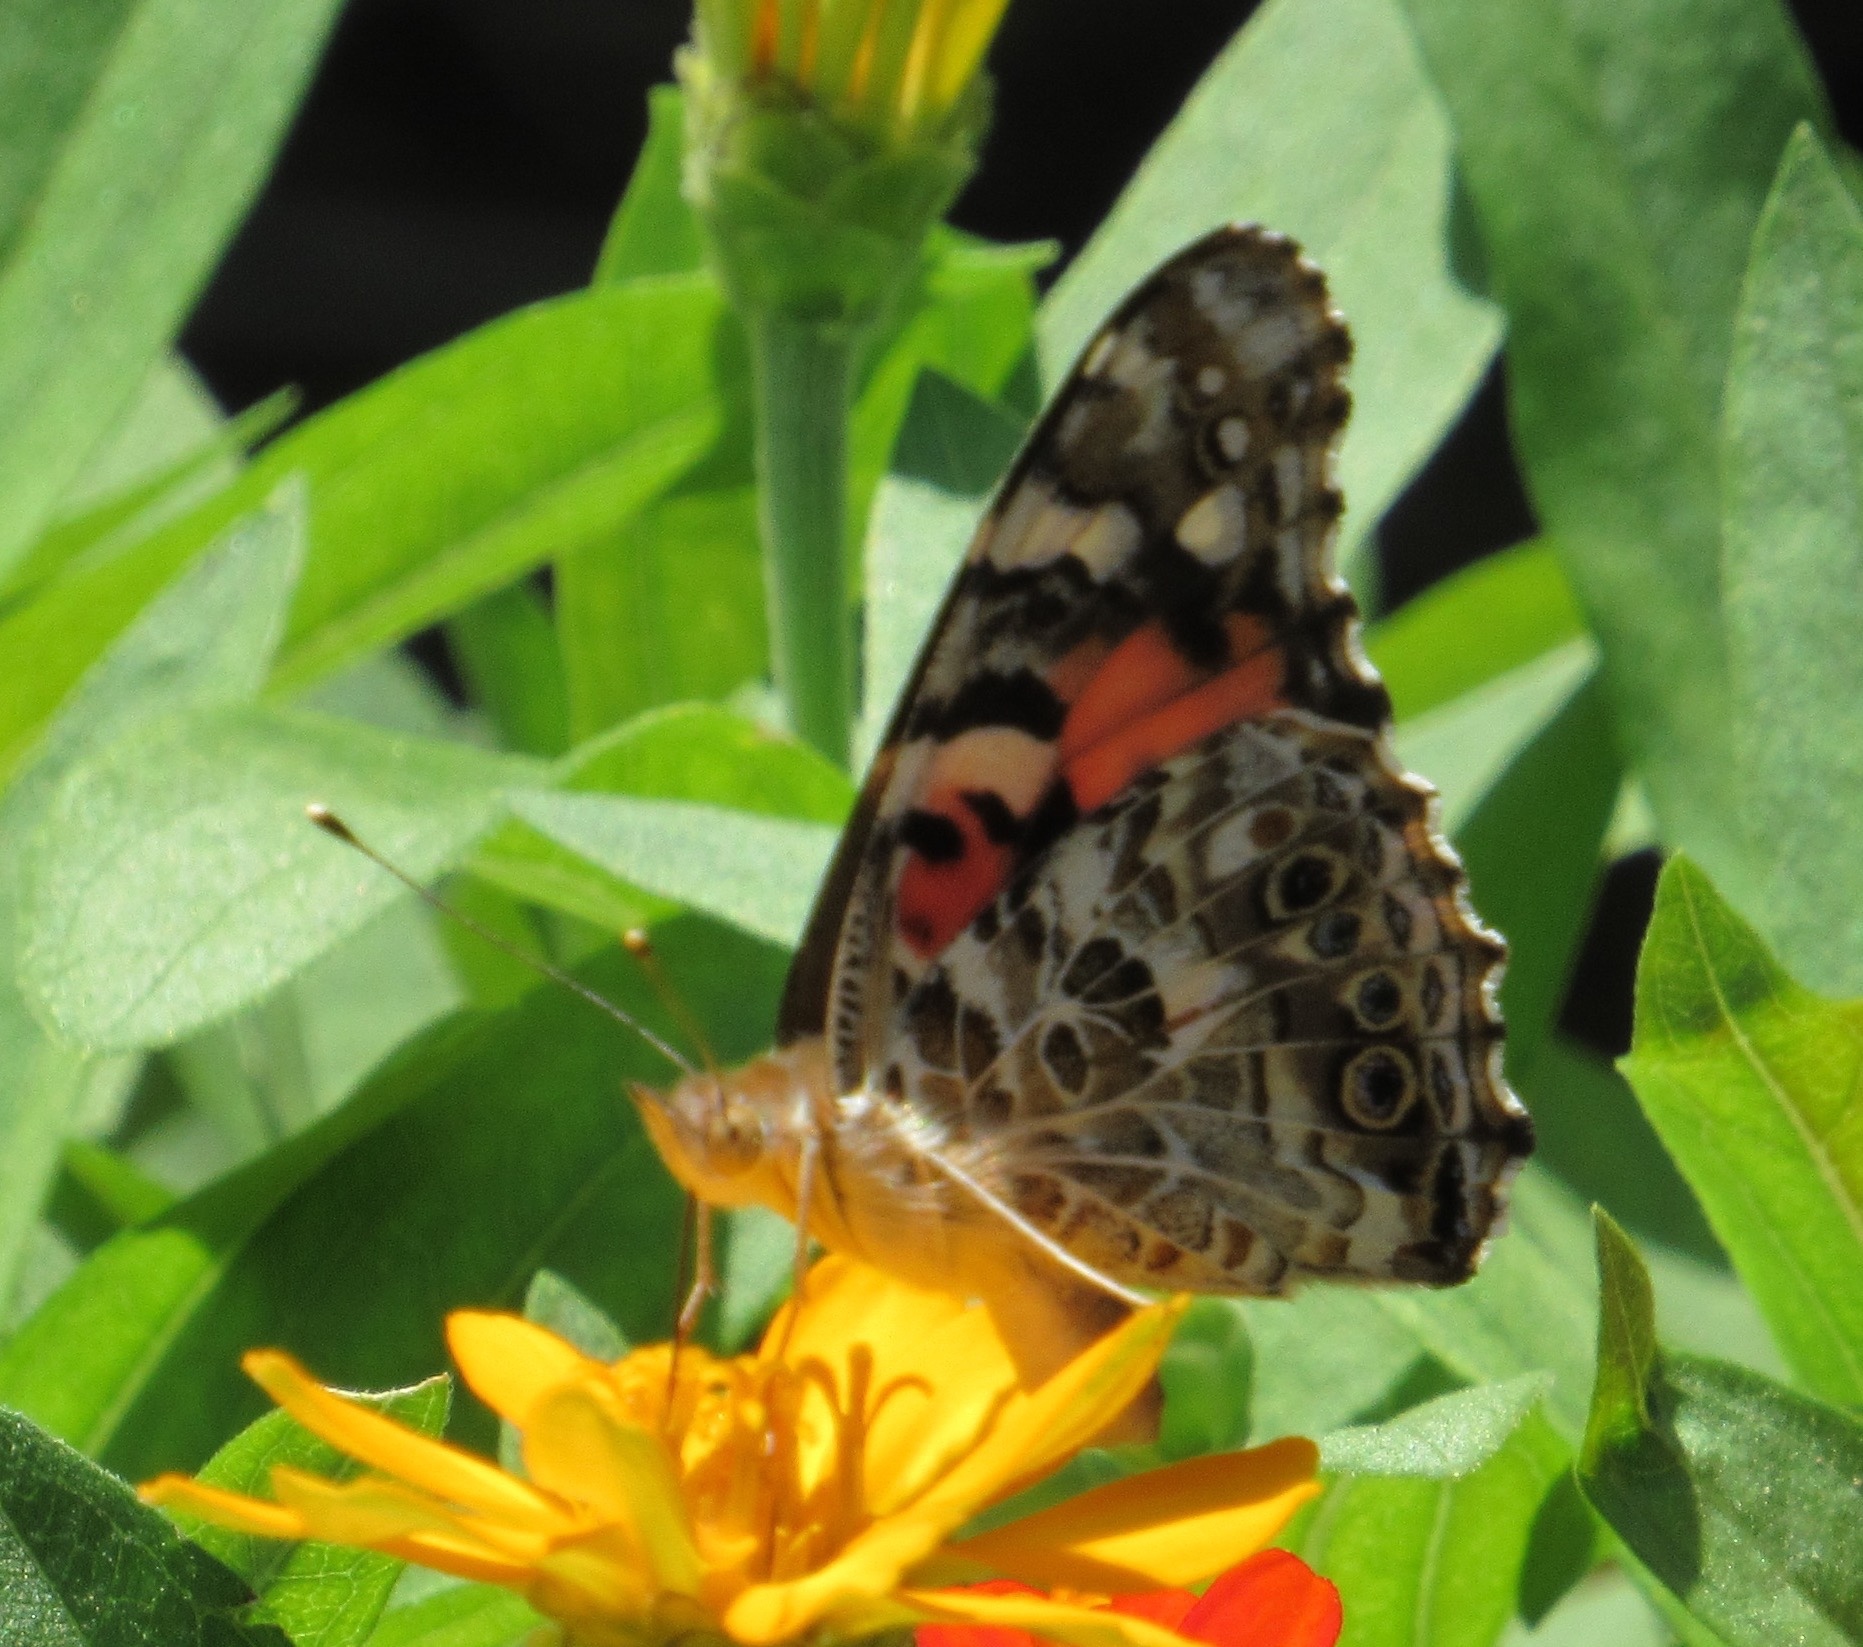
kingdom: Animalia
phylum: Arthropoda
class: Insecta
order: Lepidoptera
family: Nymphalidae
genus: Vanessa
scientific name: Vanessa cardui
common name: Painted lady
